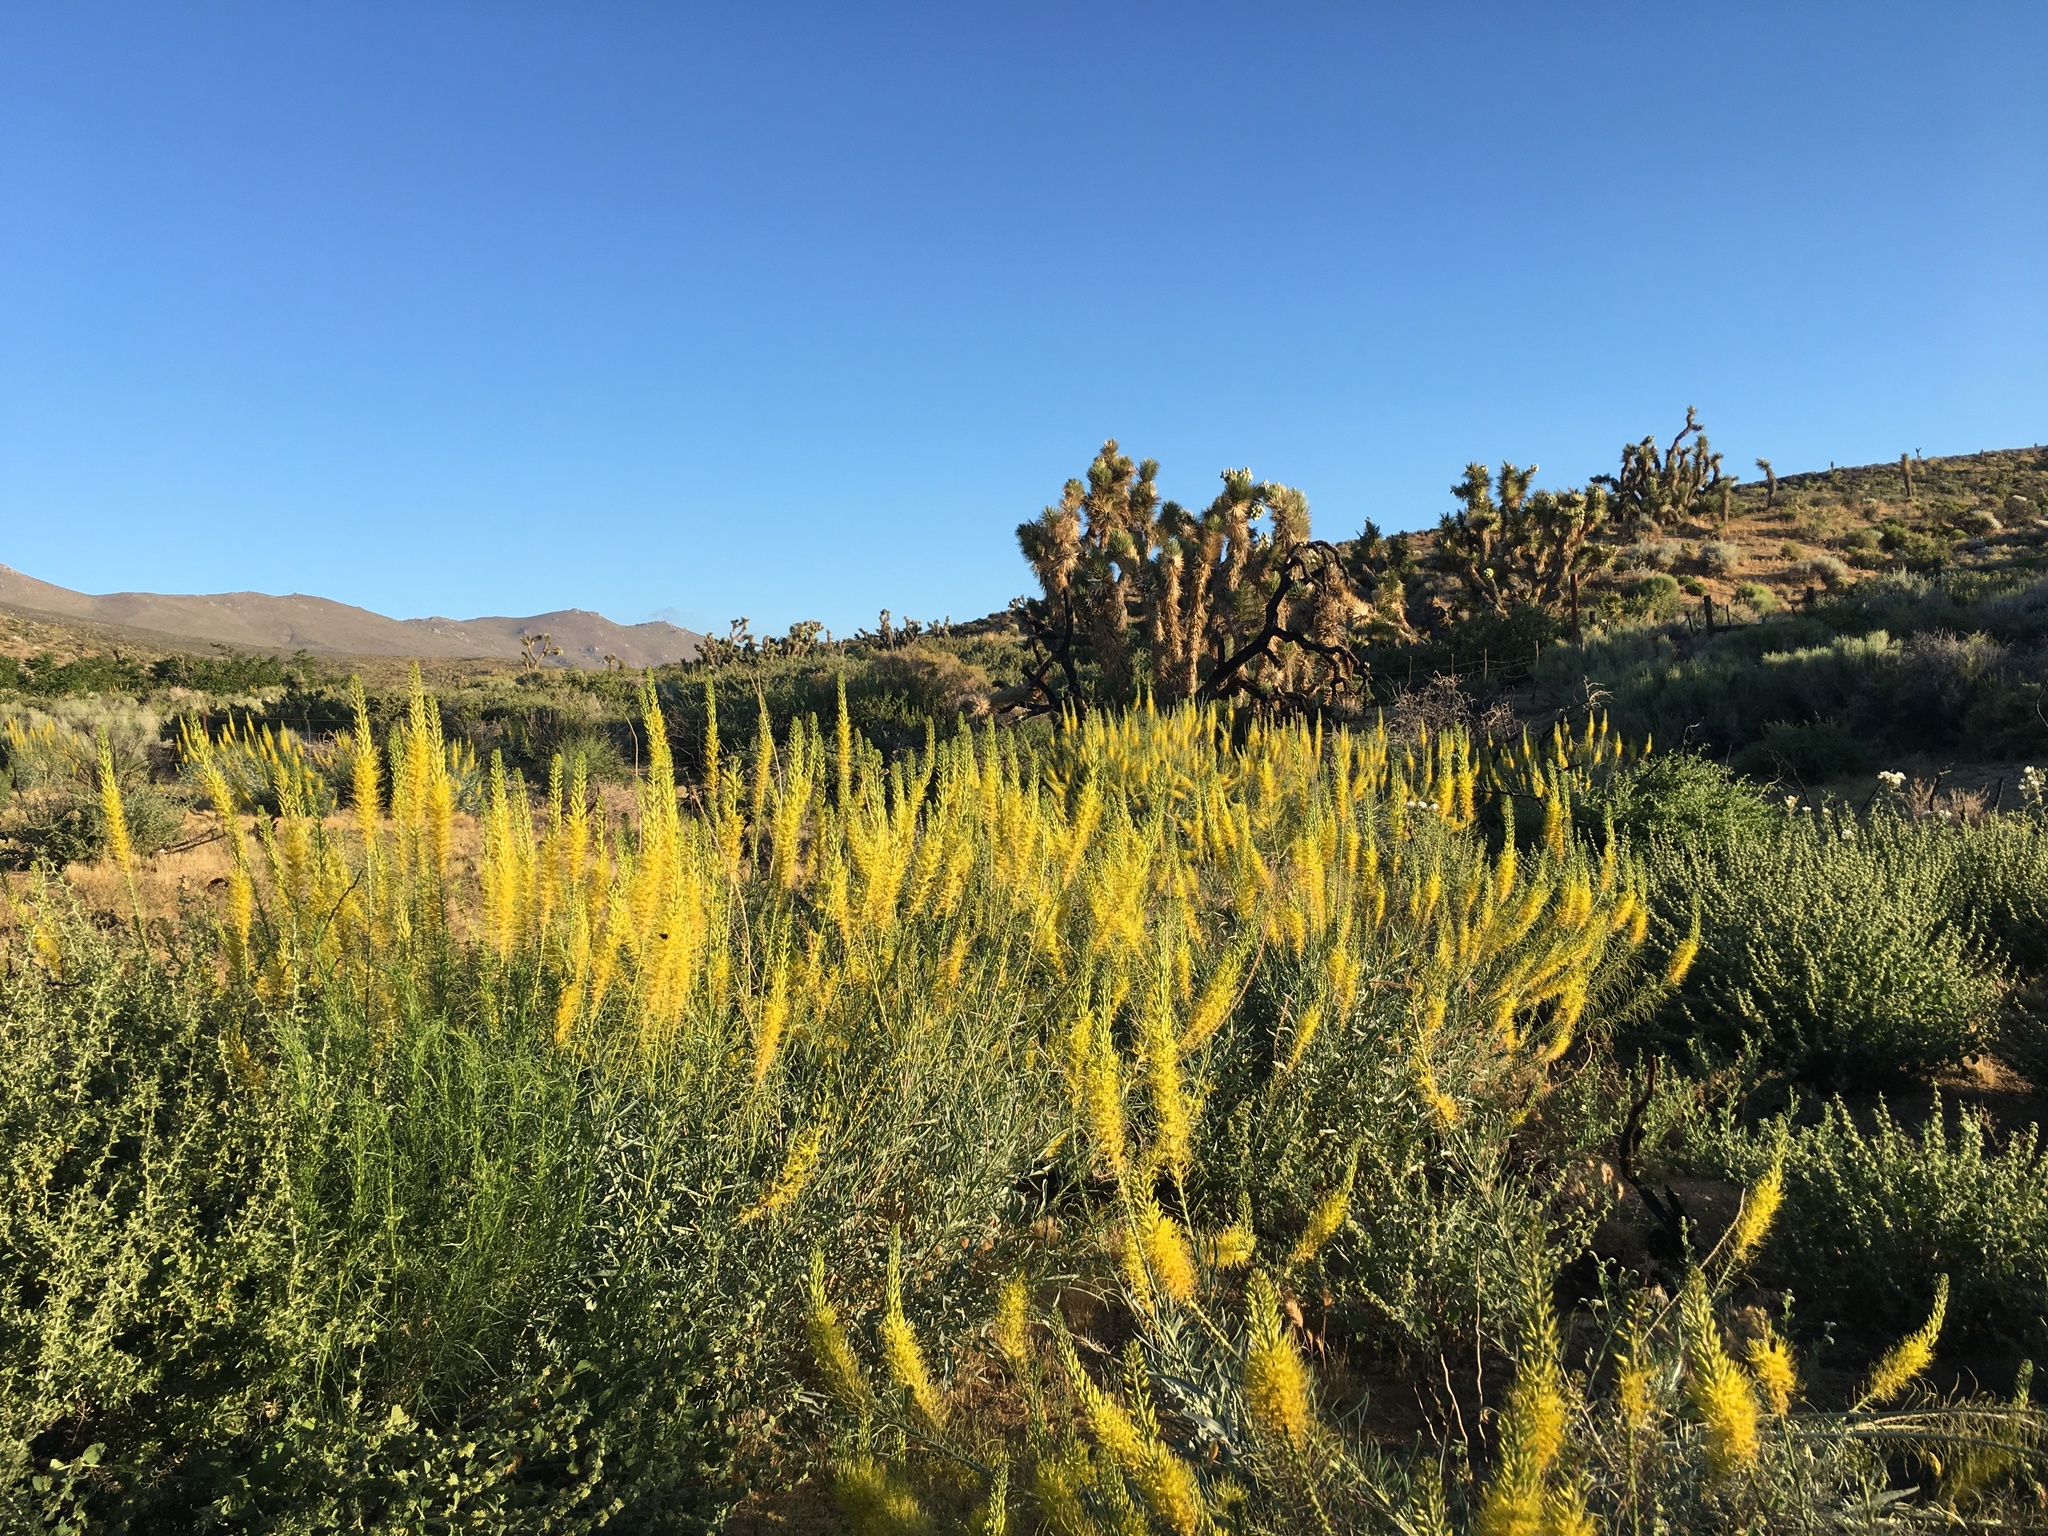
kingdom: Plantae
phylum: Tracheophyta
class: Magnoliopsida
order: Brassicales
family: Brassicaceae
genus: Stanleya
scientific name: Stanleya pinnata
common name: Prince's-plume
